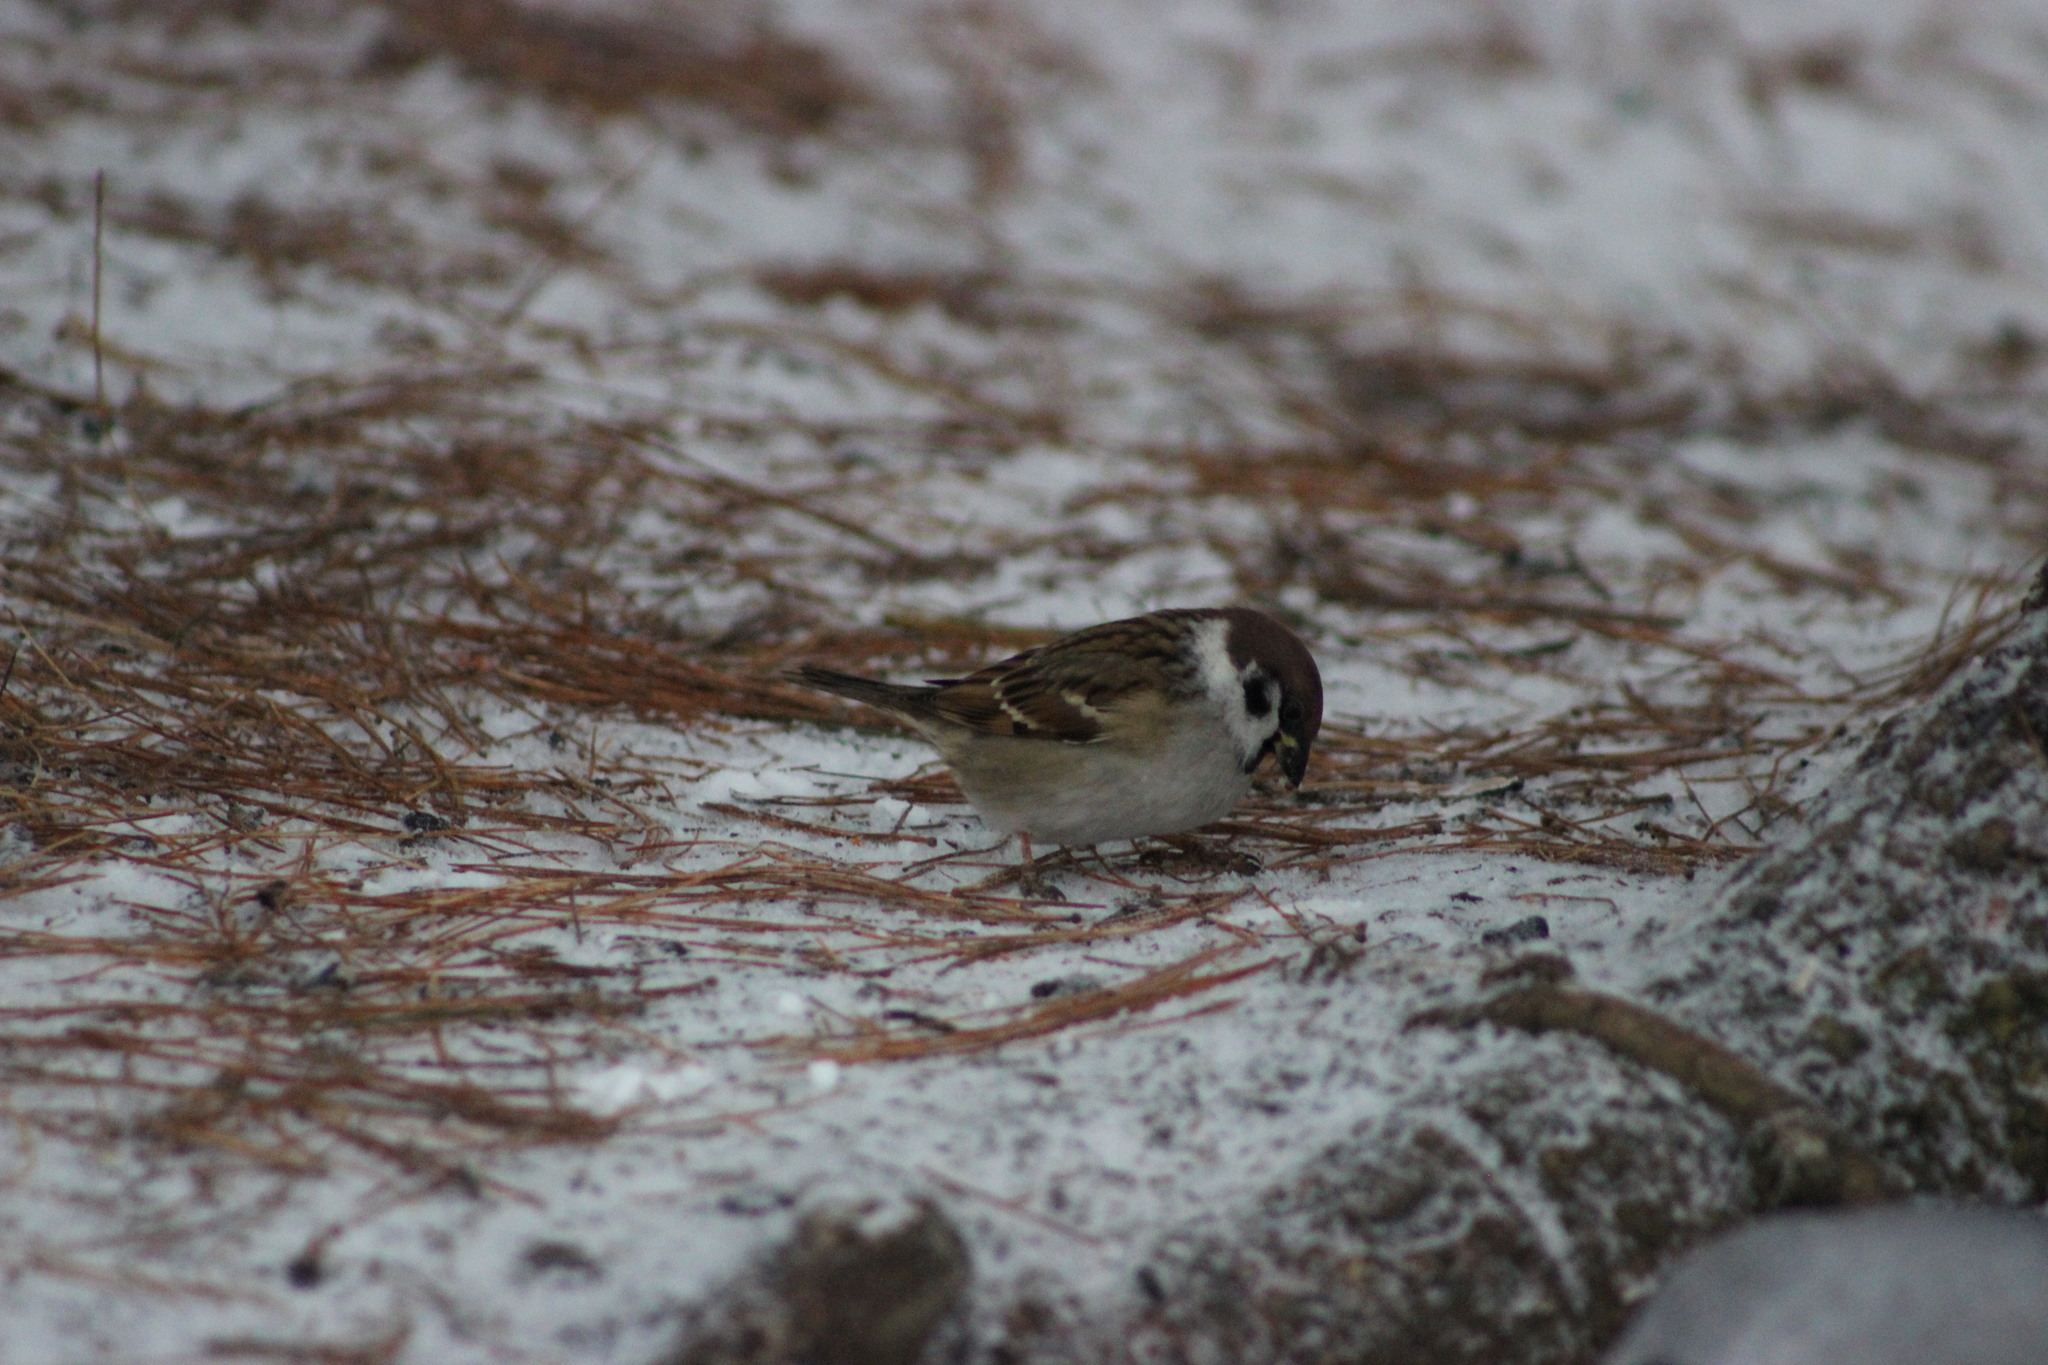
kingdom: Animalia
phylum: Chordata
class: Aves
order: Passeriformes
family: Passeridae
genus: Passer
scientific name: Passer montanus
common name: Eurasian tree sparrow
